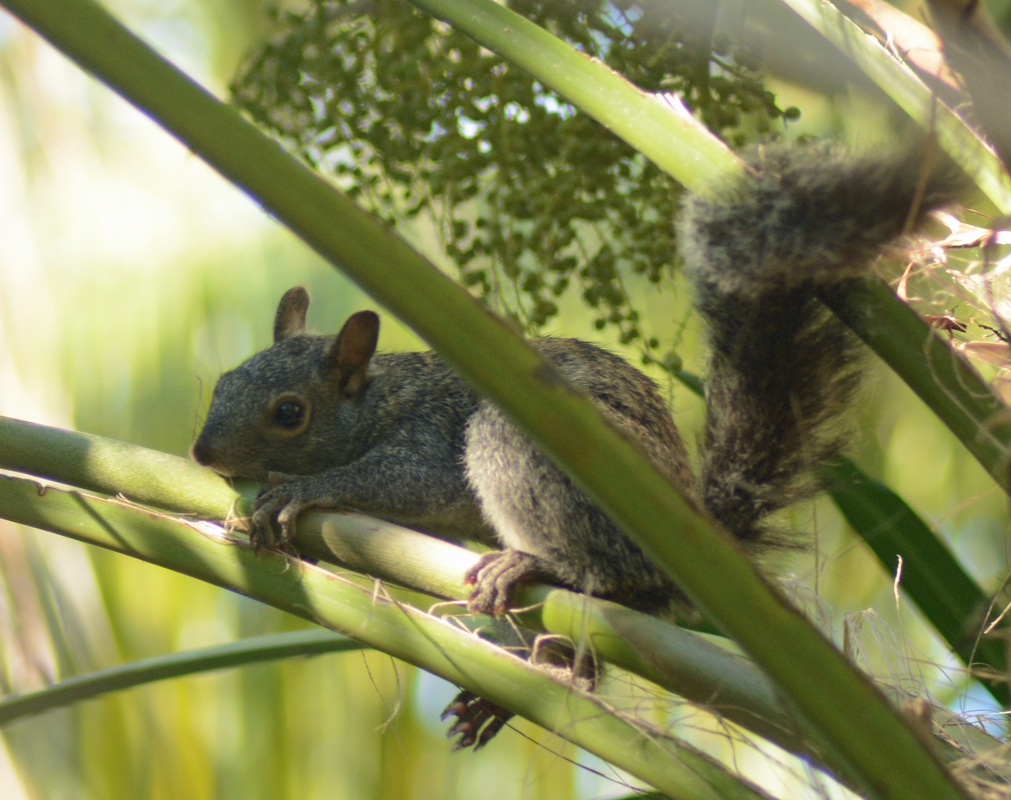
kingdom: Animalia
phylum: Chordata
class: Mammalia
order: Rodentia
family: Sciuridae
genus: Sciurus
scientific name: Sciurus yucatanensis
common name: Yucatan squirrel
